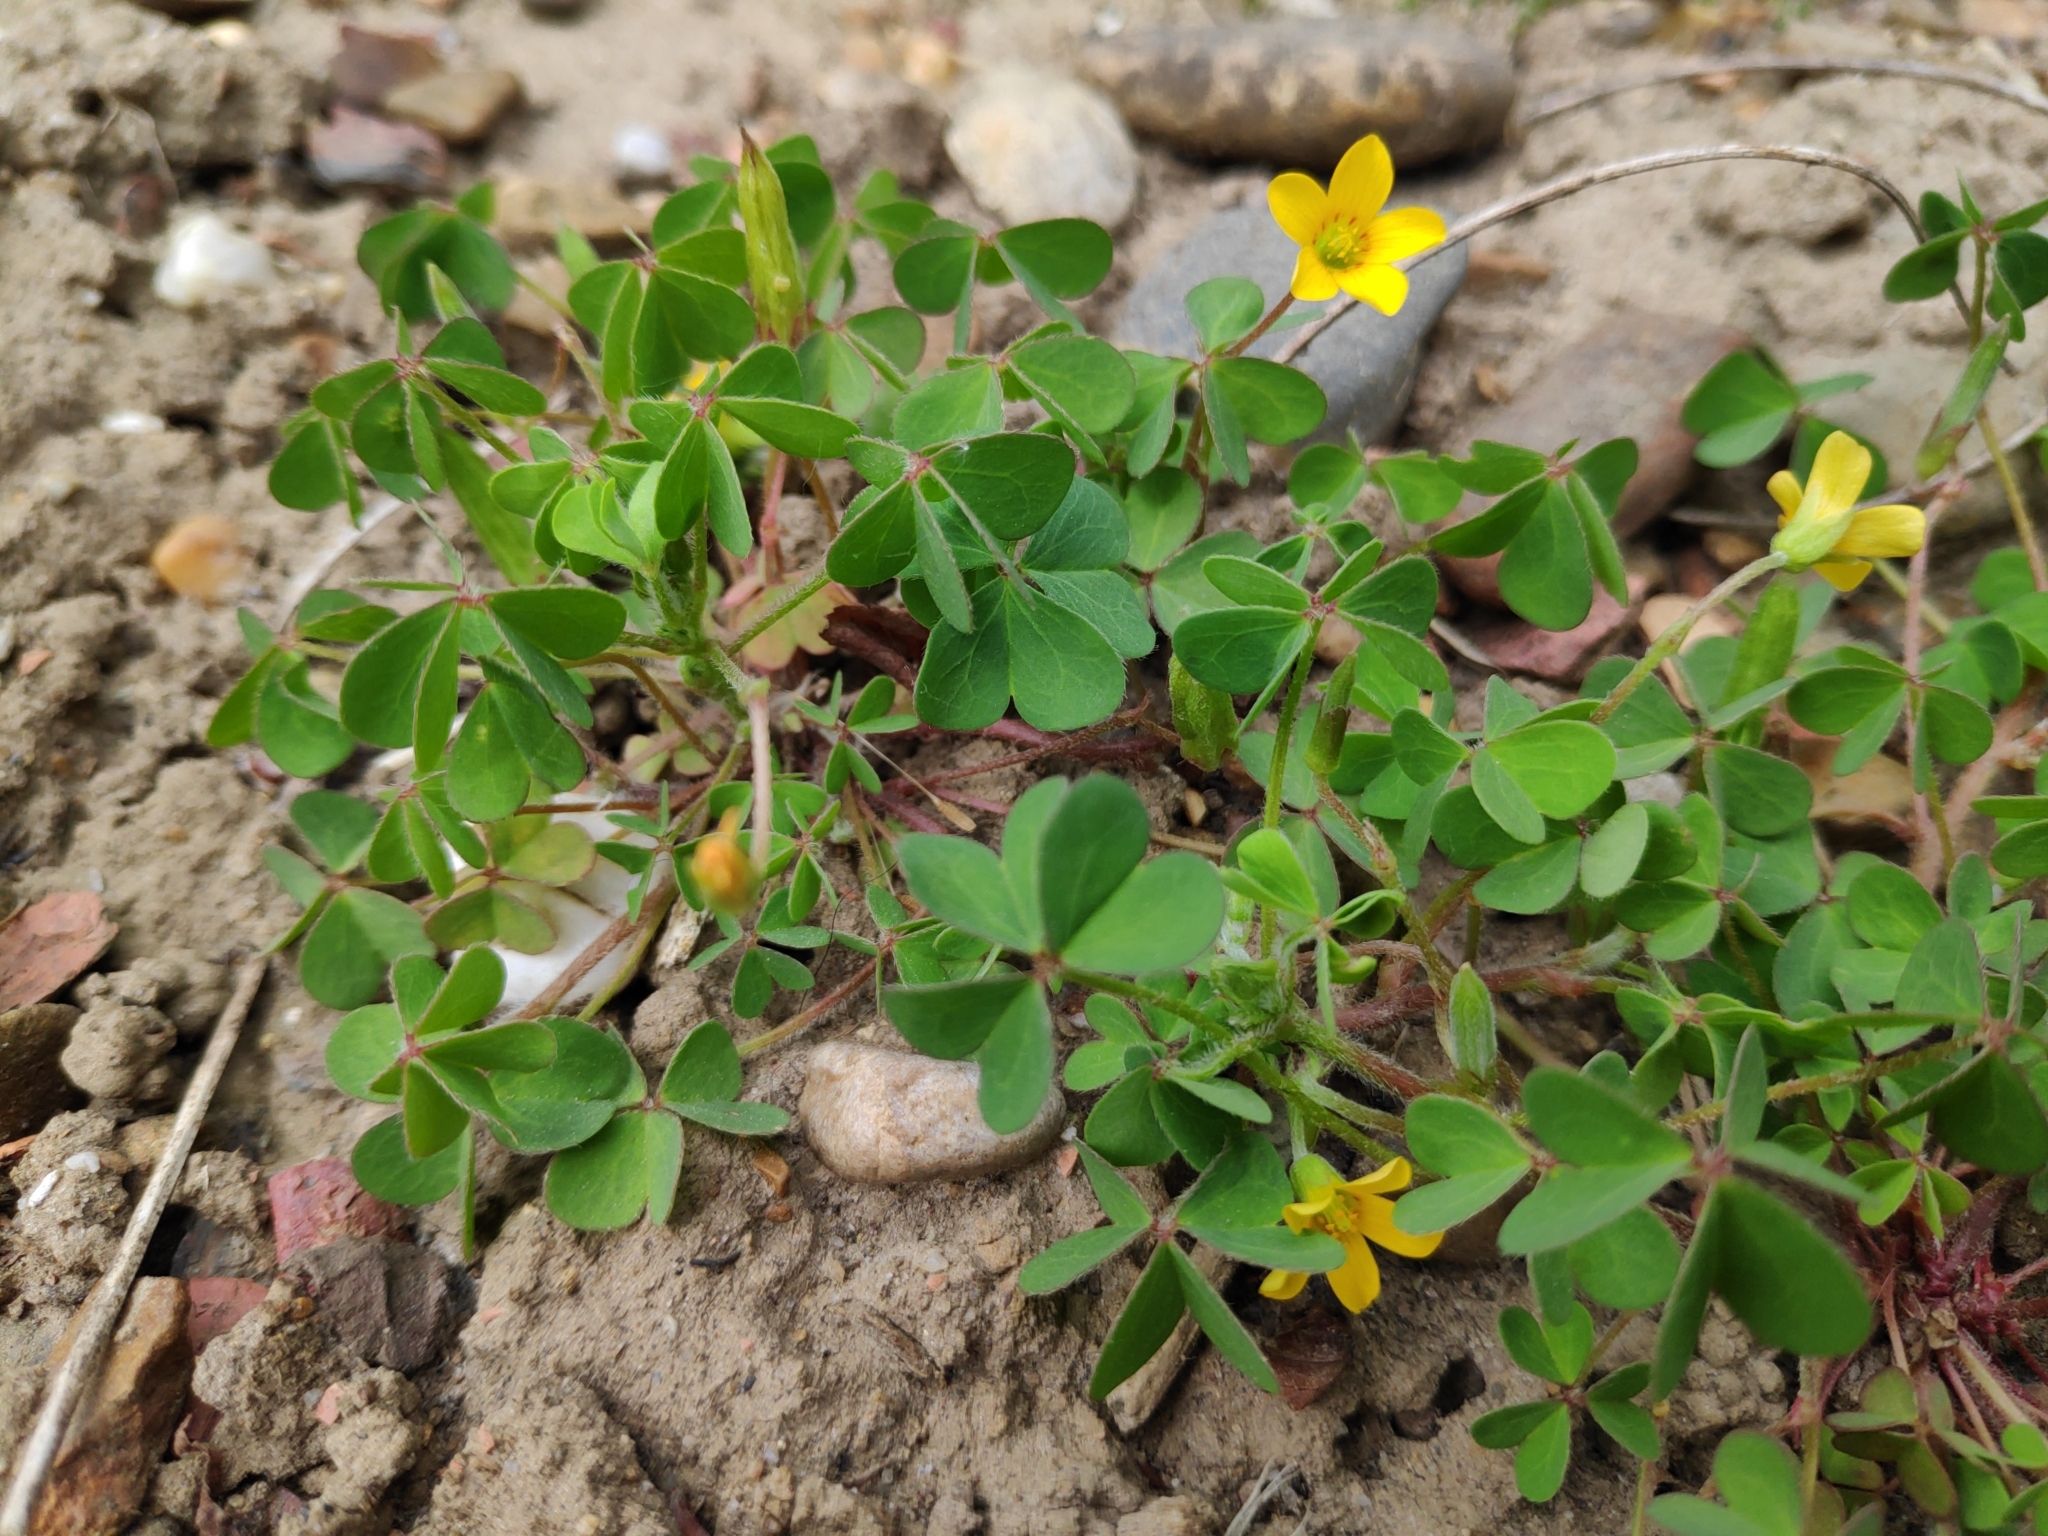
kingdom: Plantae
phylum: Tracheophyta
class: Magnoliopsida
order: Oxalidales
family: Oxalidaceae
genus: Oxalis
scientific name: Oxalis corniculata
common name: Procumbent yellow-sorrel
